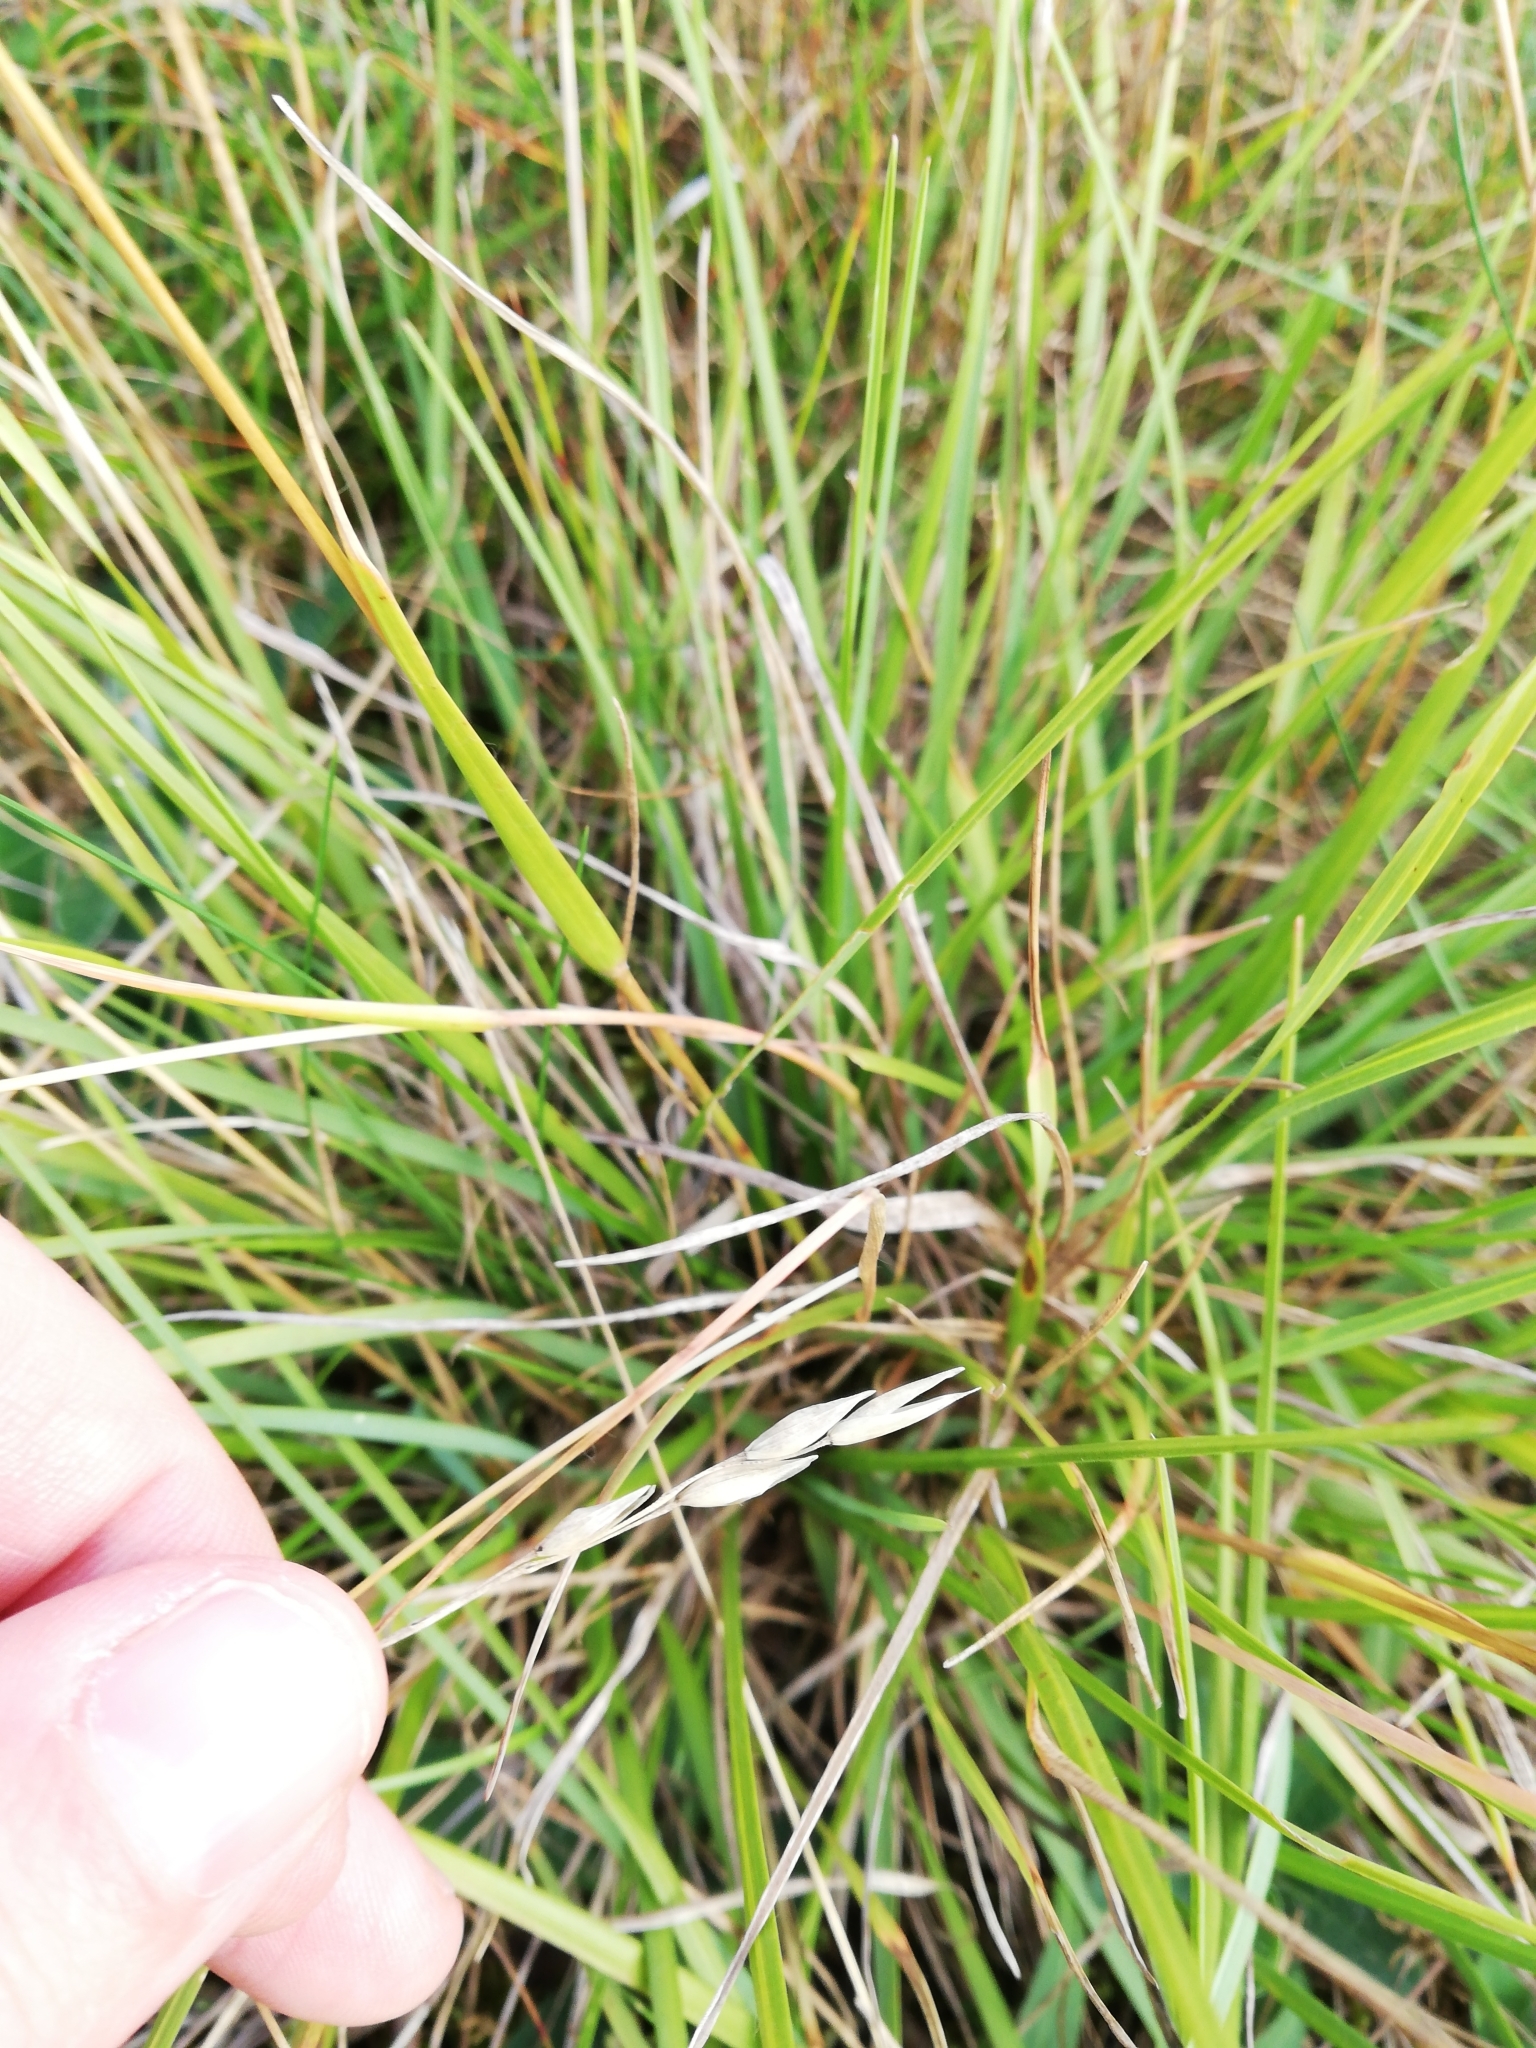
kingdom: Plantae
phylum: Tracheophyta
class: Liliopsida
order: Poales
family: Poaceae
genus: Danthonia
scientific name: Danthonia decumbens
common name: Common heathgrass
